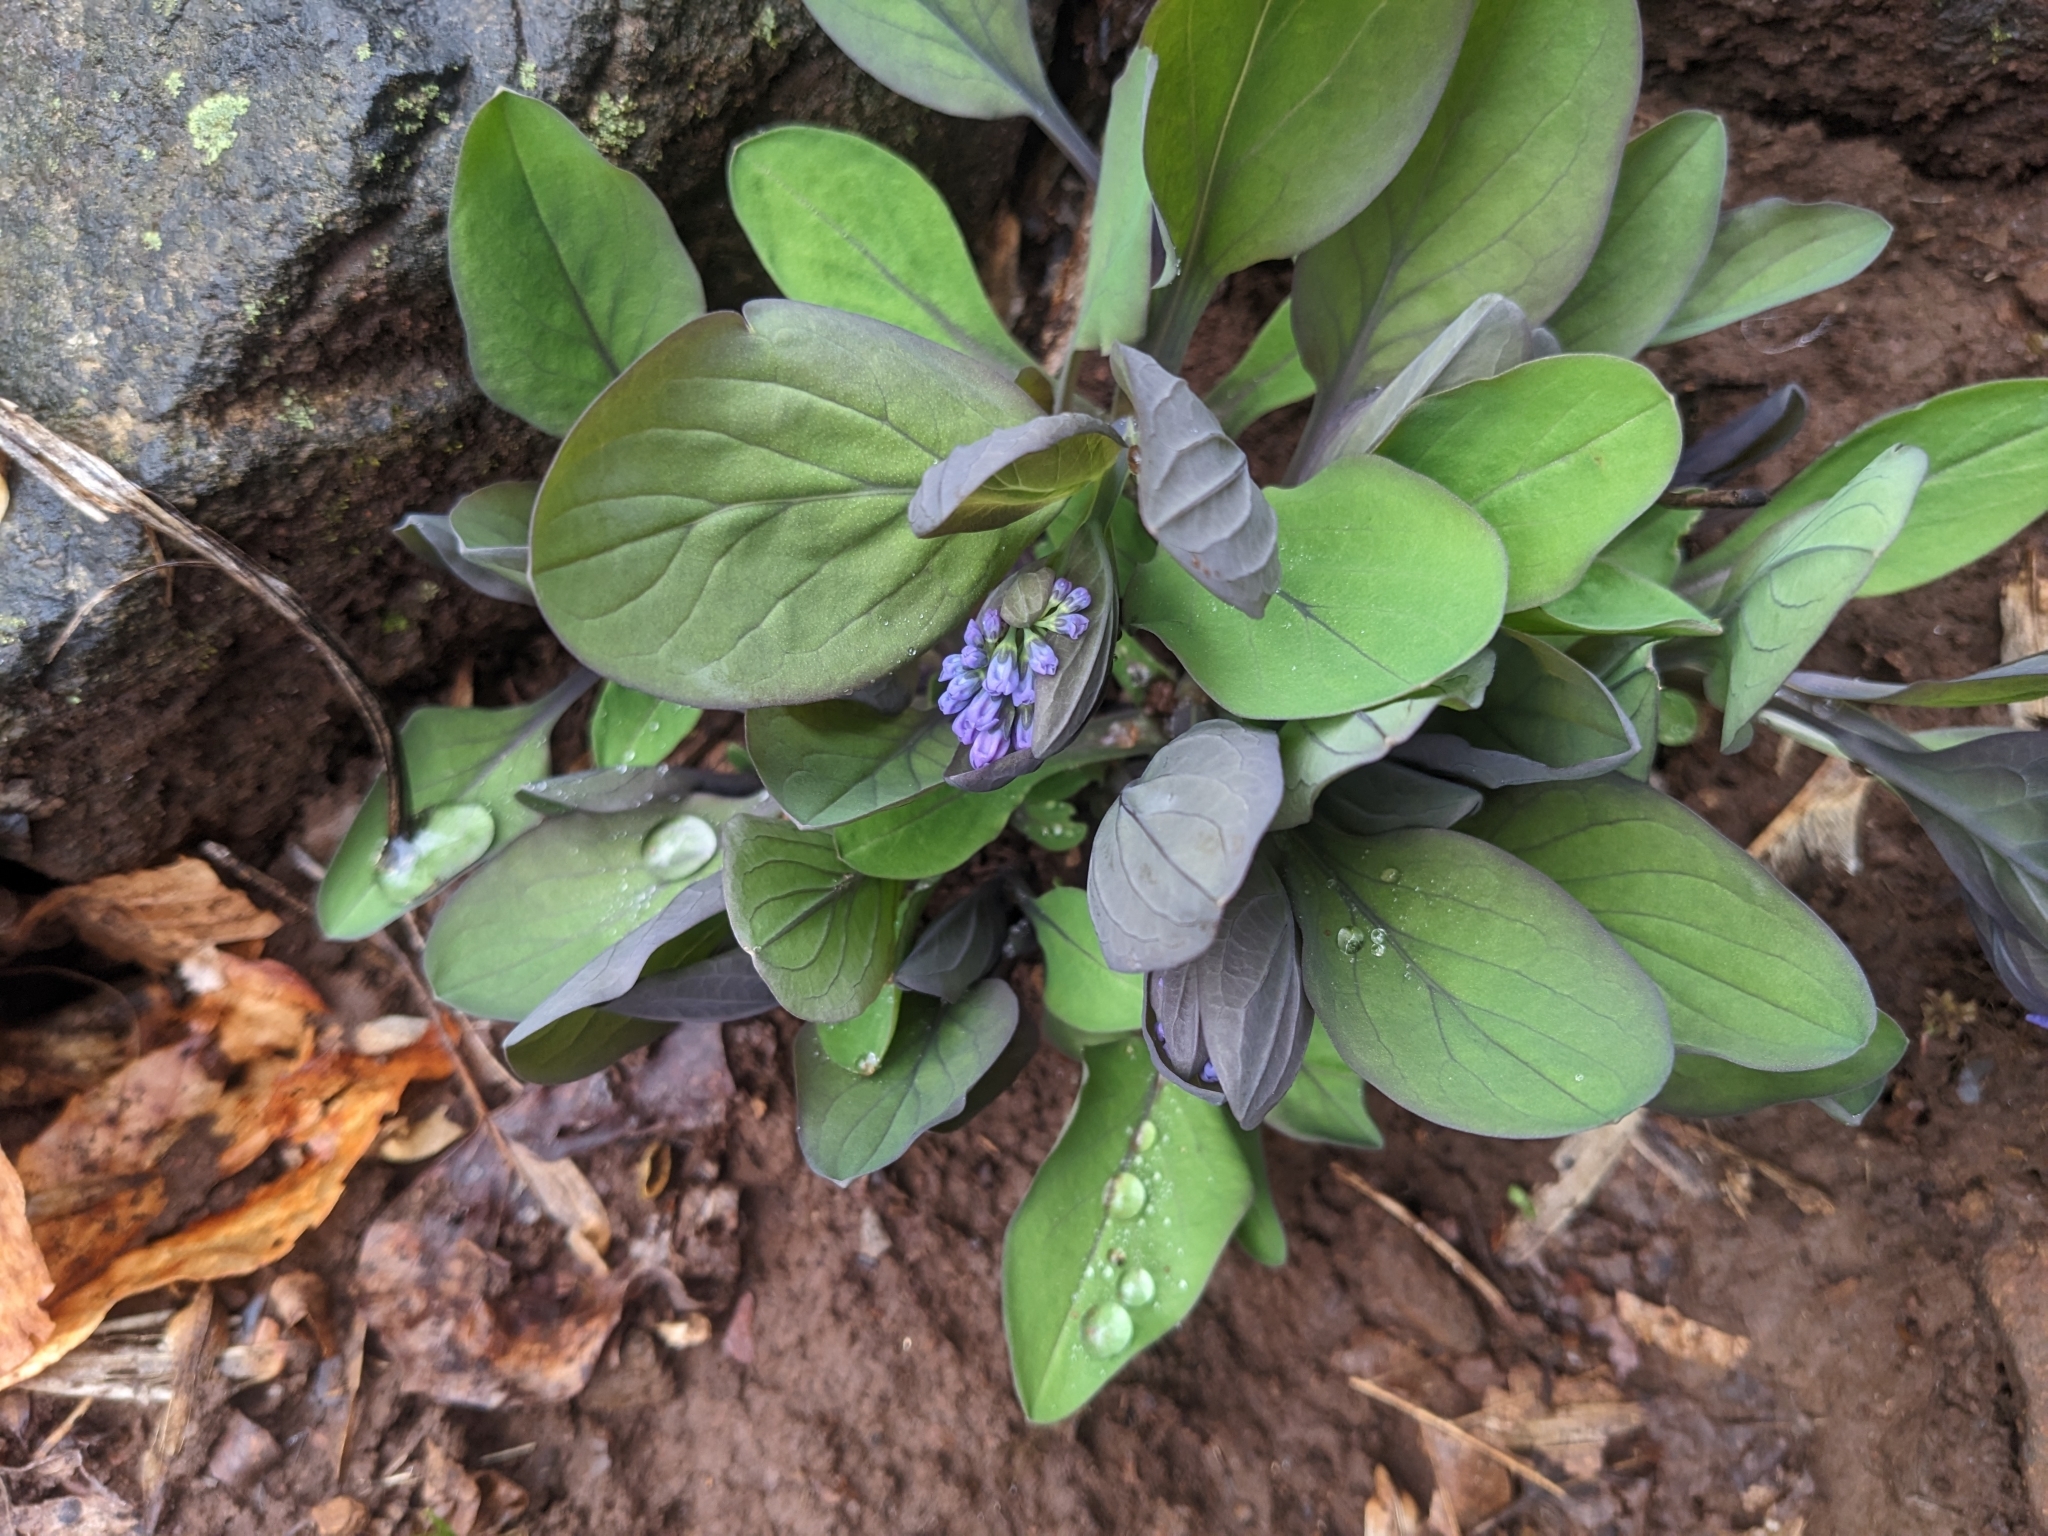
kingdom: Plantae
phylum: Tracheophyta
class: Magnoliopsida
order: Boraginales
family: Boraginaceae
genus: Mertensia
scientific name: Mertensia virginica
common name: Virginia bluebells
